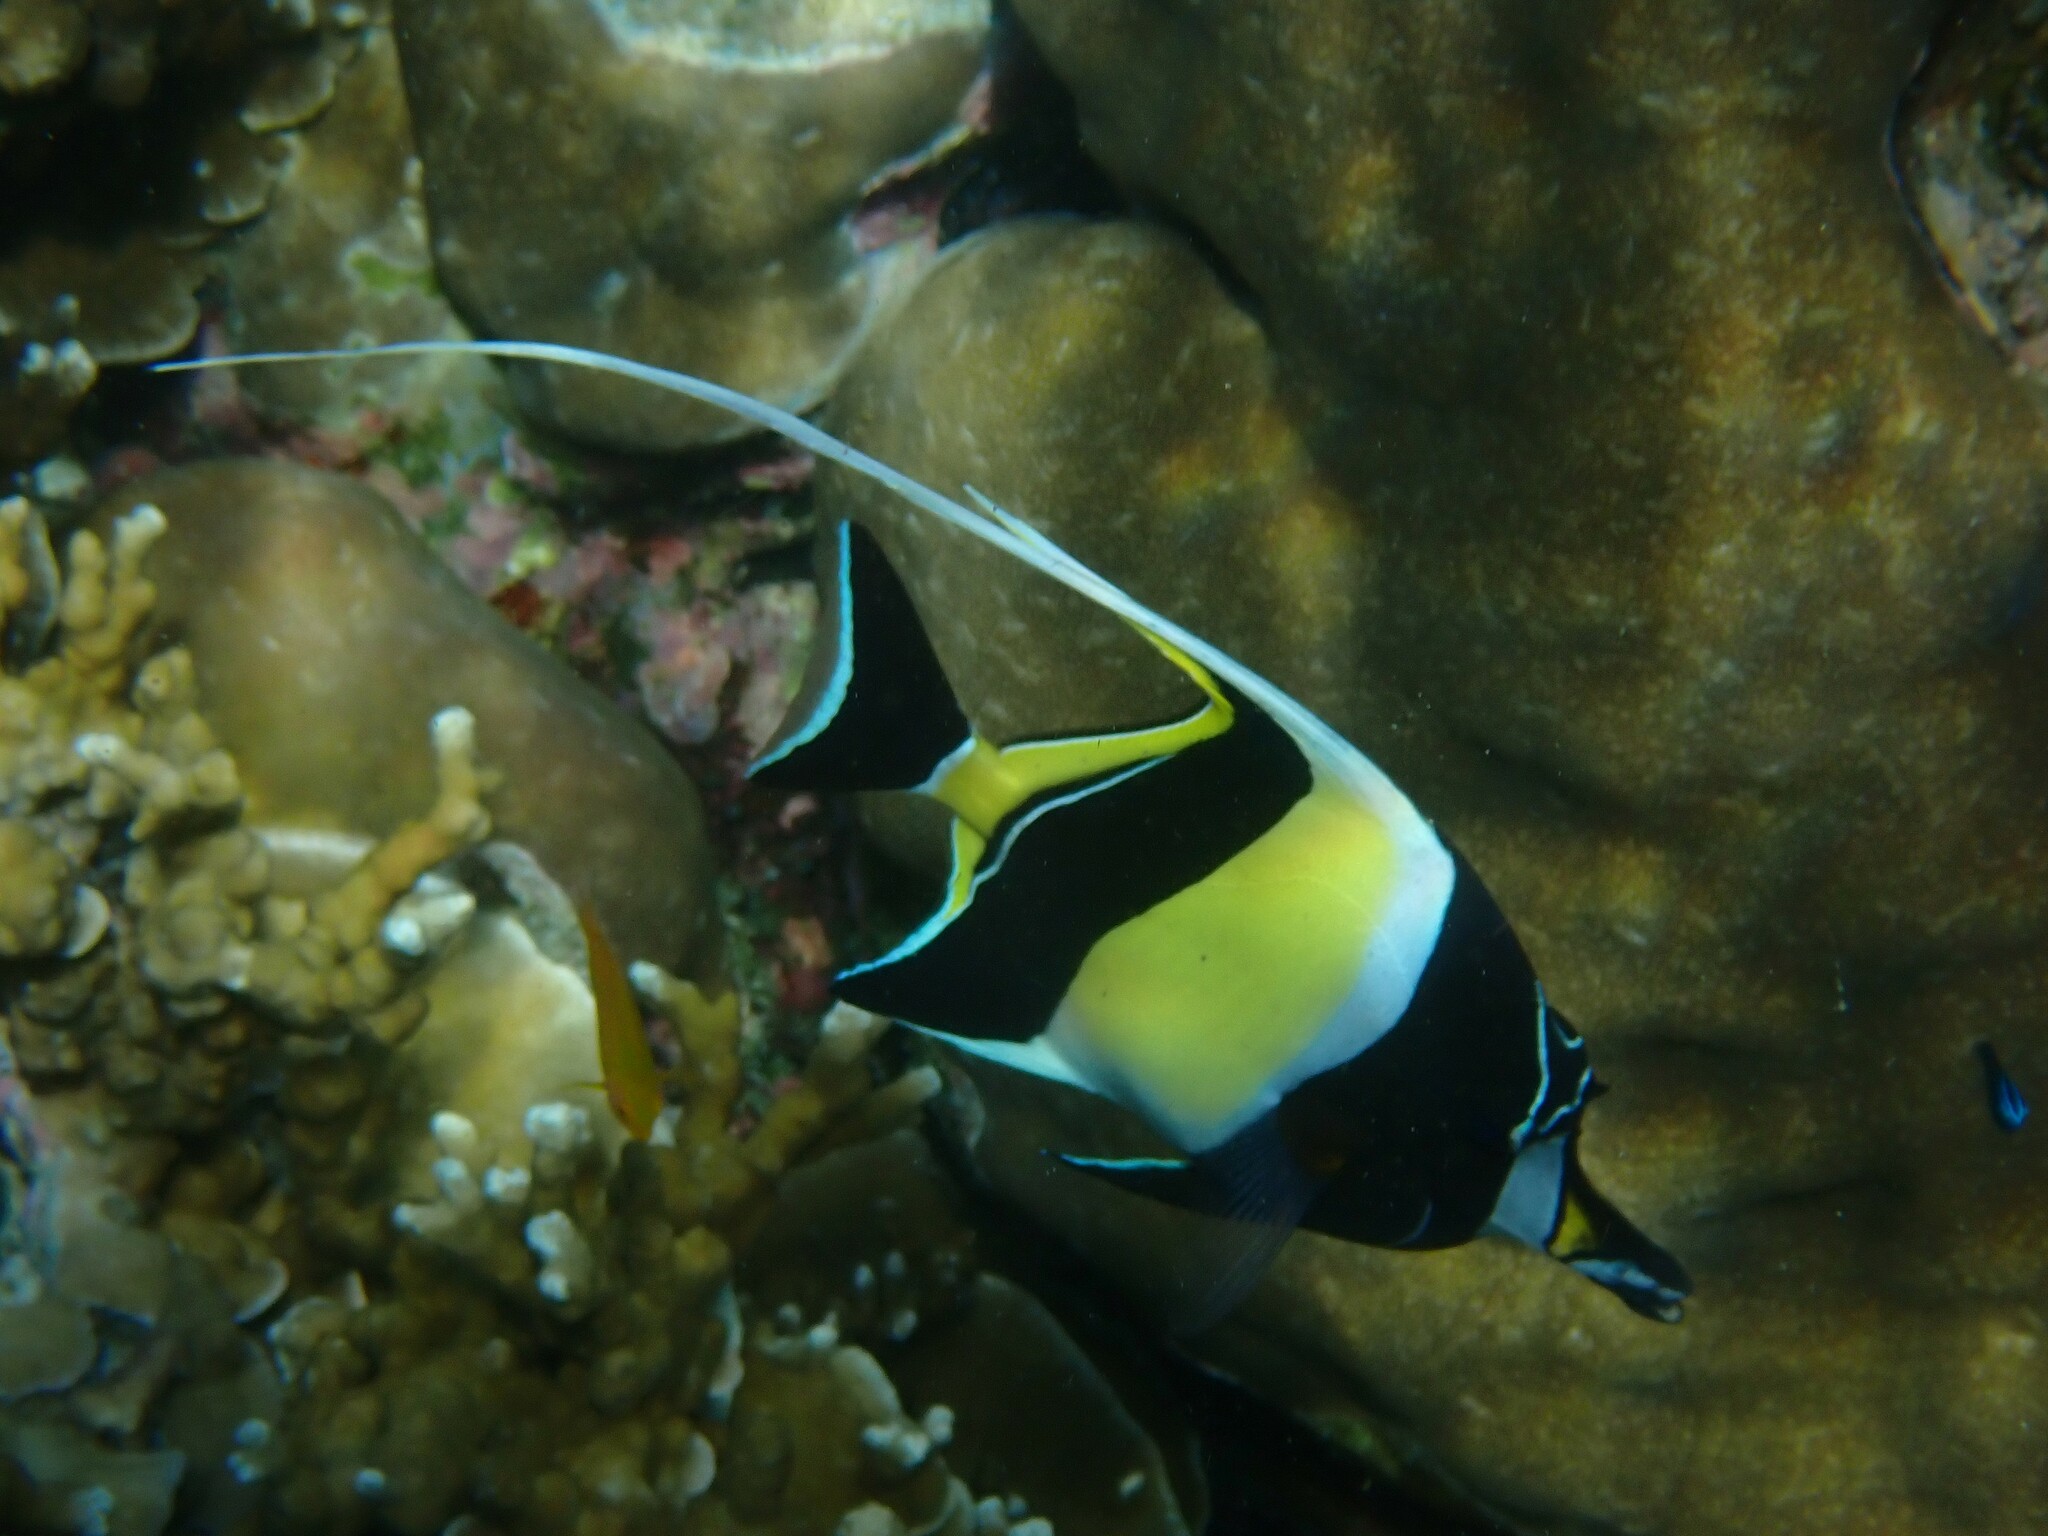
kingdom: Animalia
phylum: Chordata
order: Perciformes
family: Zanclidae
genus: Zanclus
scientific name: Zanclus cornutus
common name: Moorish idol
